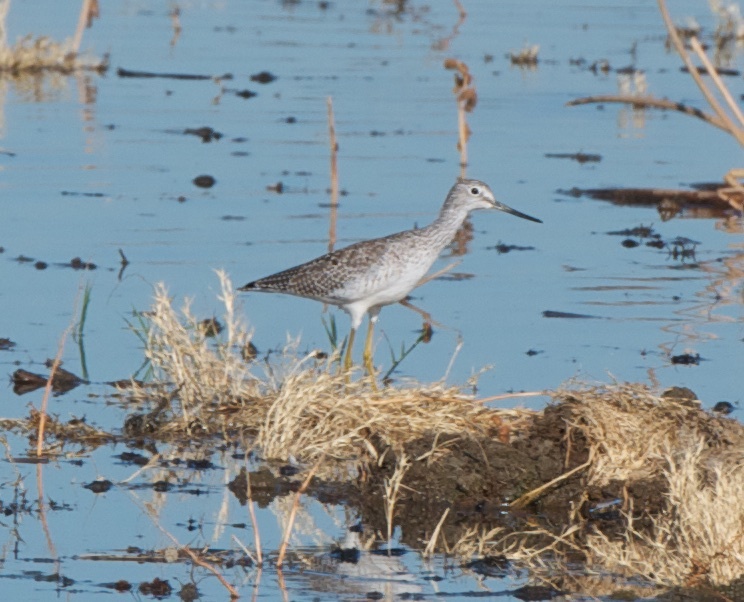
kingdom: Animalia
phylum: Chordata
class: Aves
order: Charadriiformes
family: Scolopacidae
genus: Tringa
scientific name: Tringa melanoleuca
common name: Greater yellowlegs
